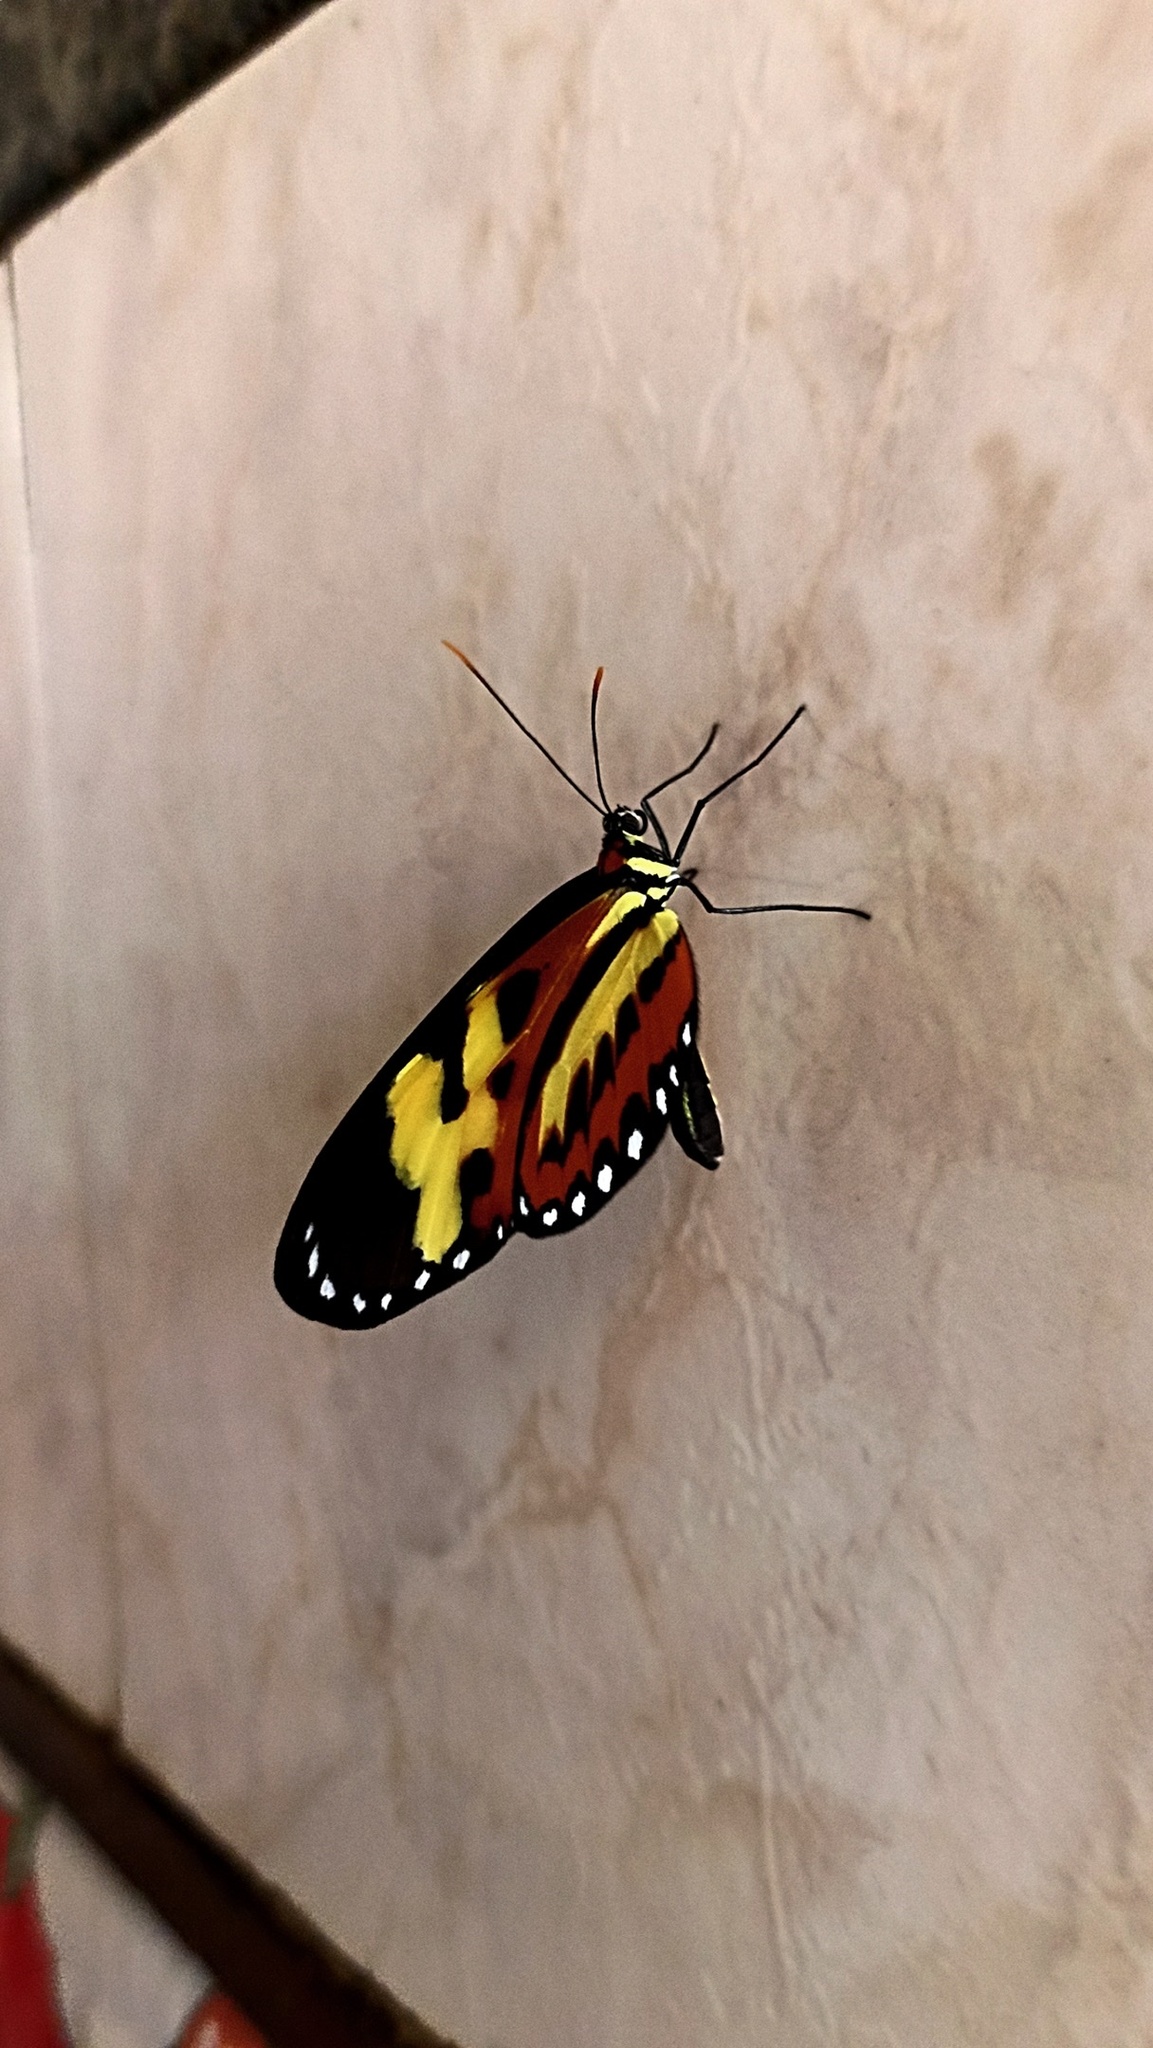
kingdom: Animalia
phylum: Arthropoda
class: Insecta
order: Lepidoptera
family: Nymphalidae
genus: Mechanitis
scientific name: Mechanitis polymnia
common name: Disturbed tigerwing
